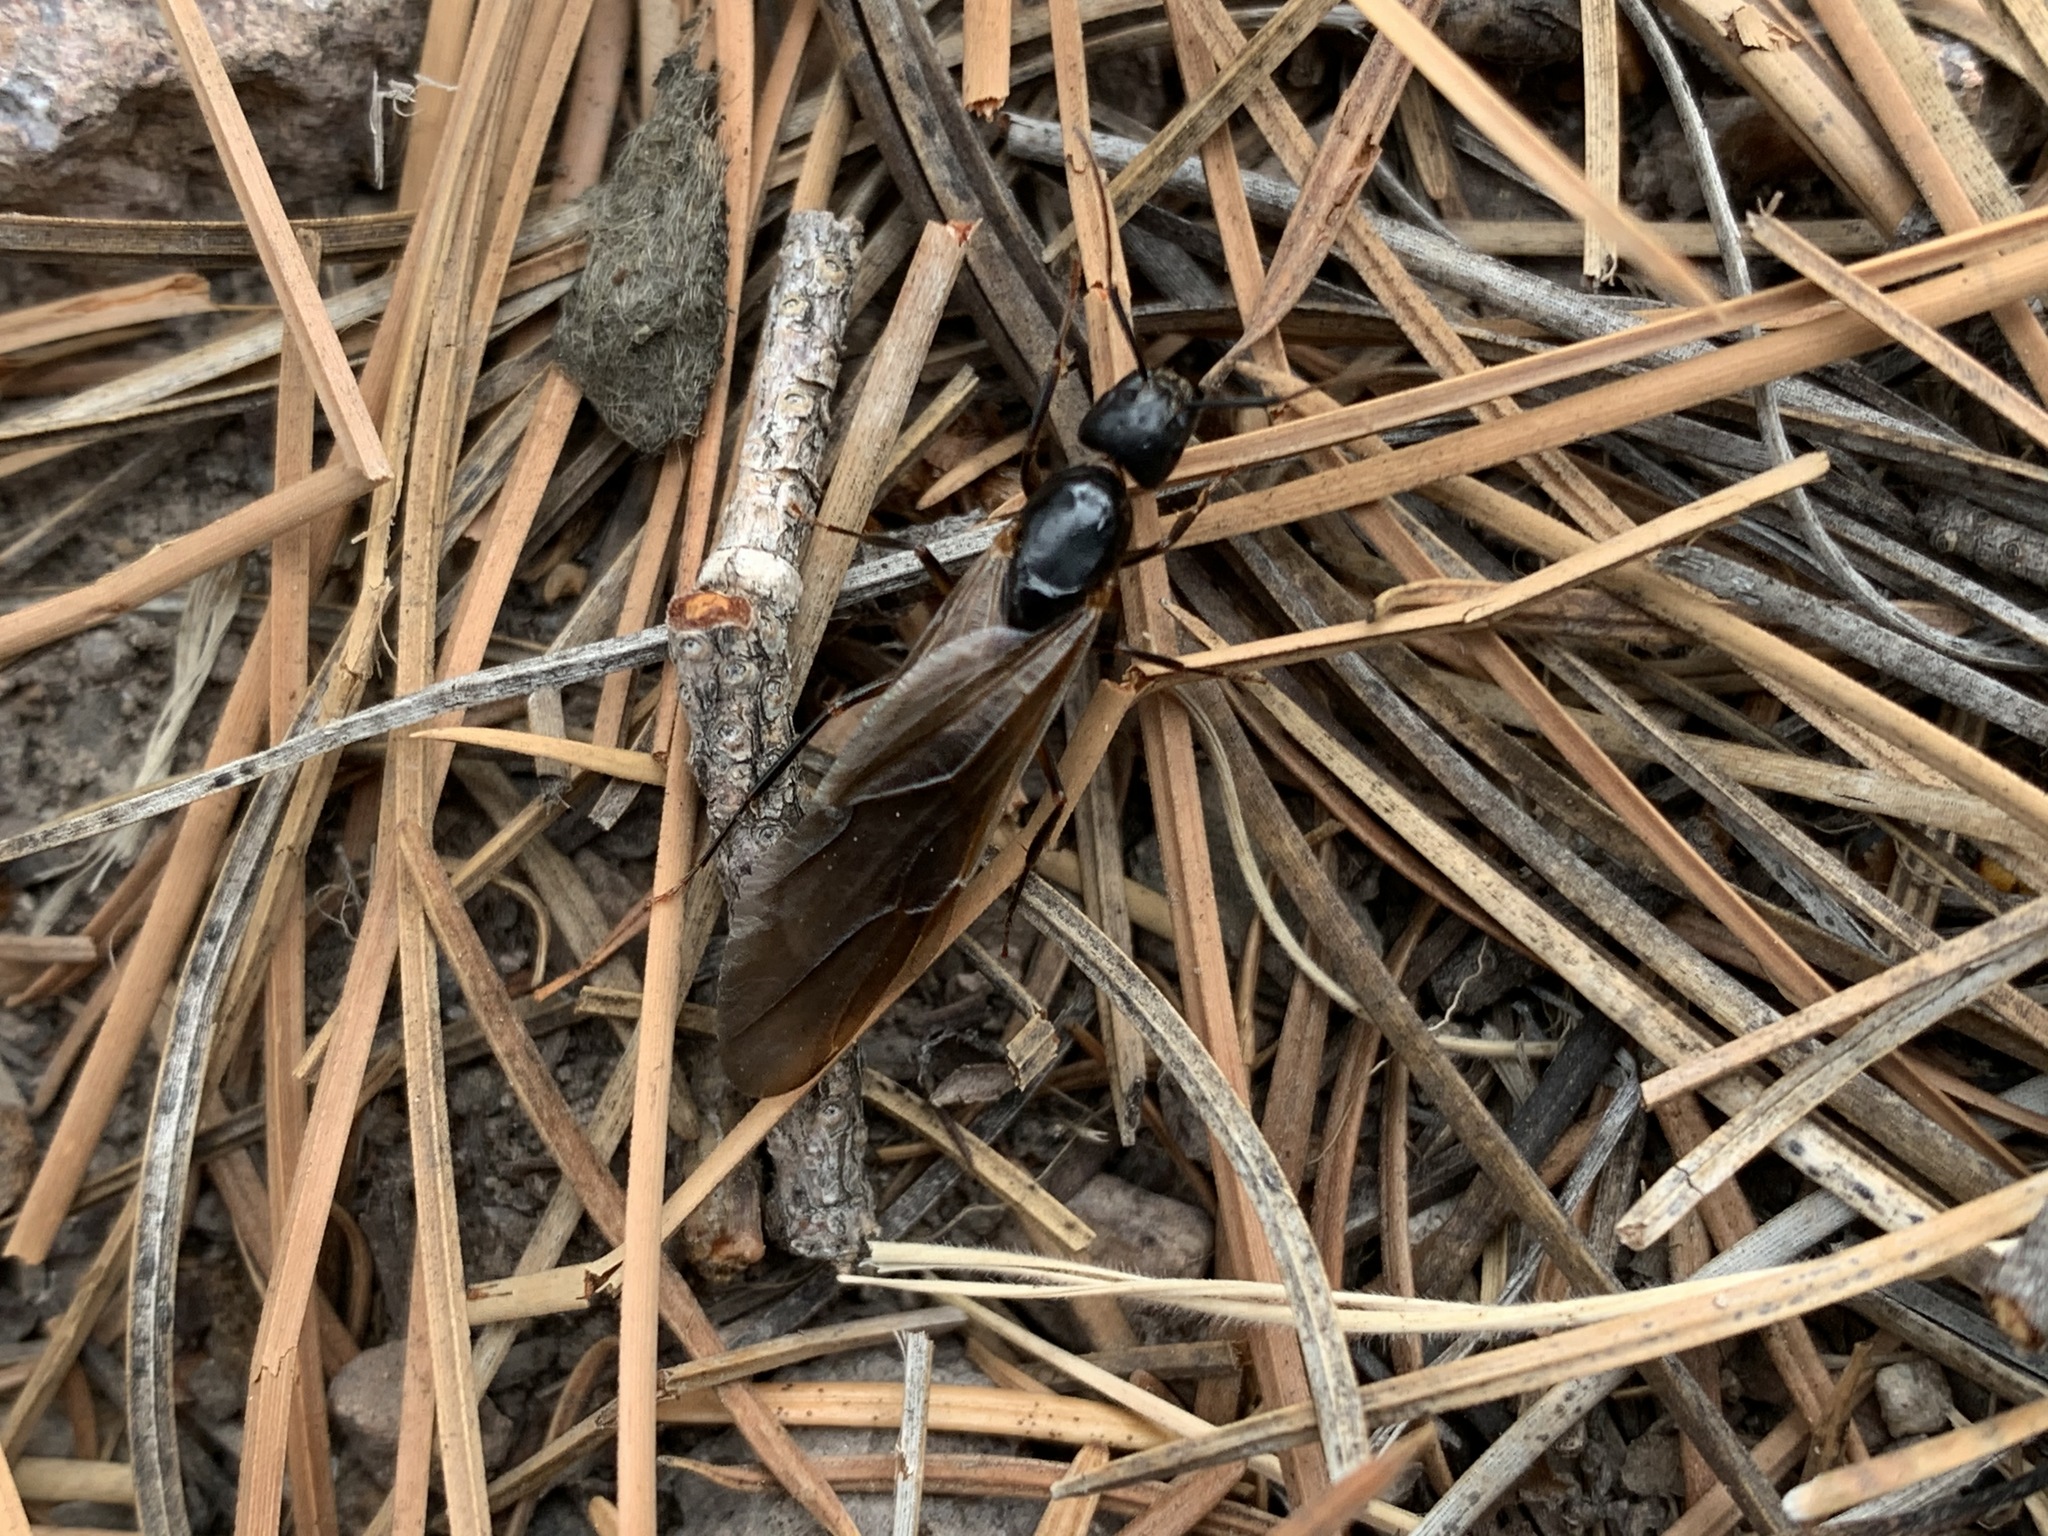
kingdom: Animalia
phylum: Arthropoda
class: Insecta
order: Hymenoptera
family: Formicidae
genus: Camponotus
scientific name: Camponotus vicinus
